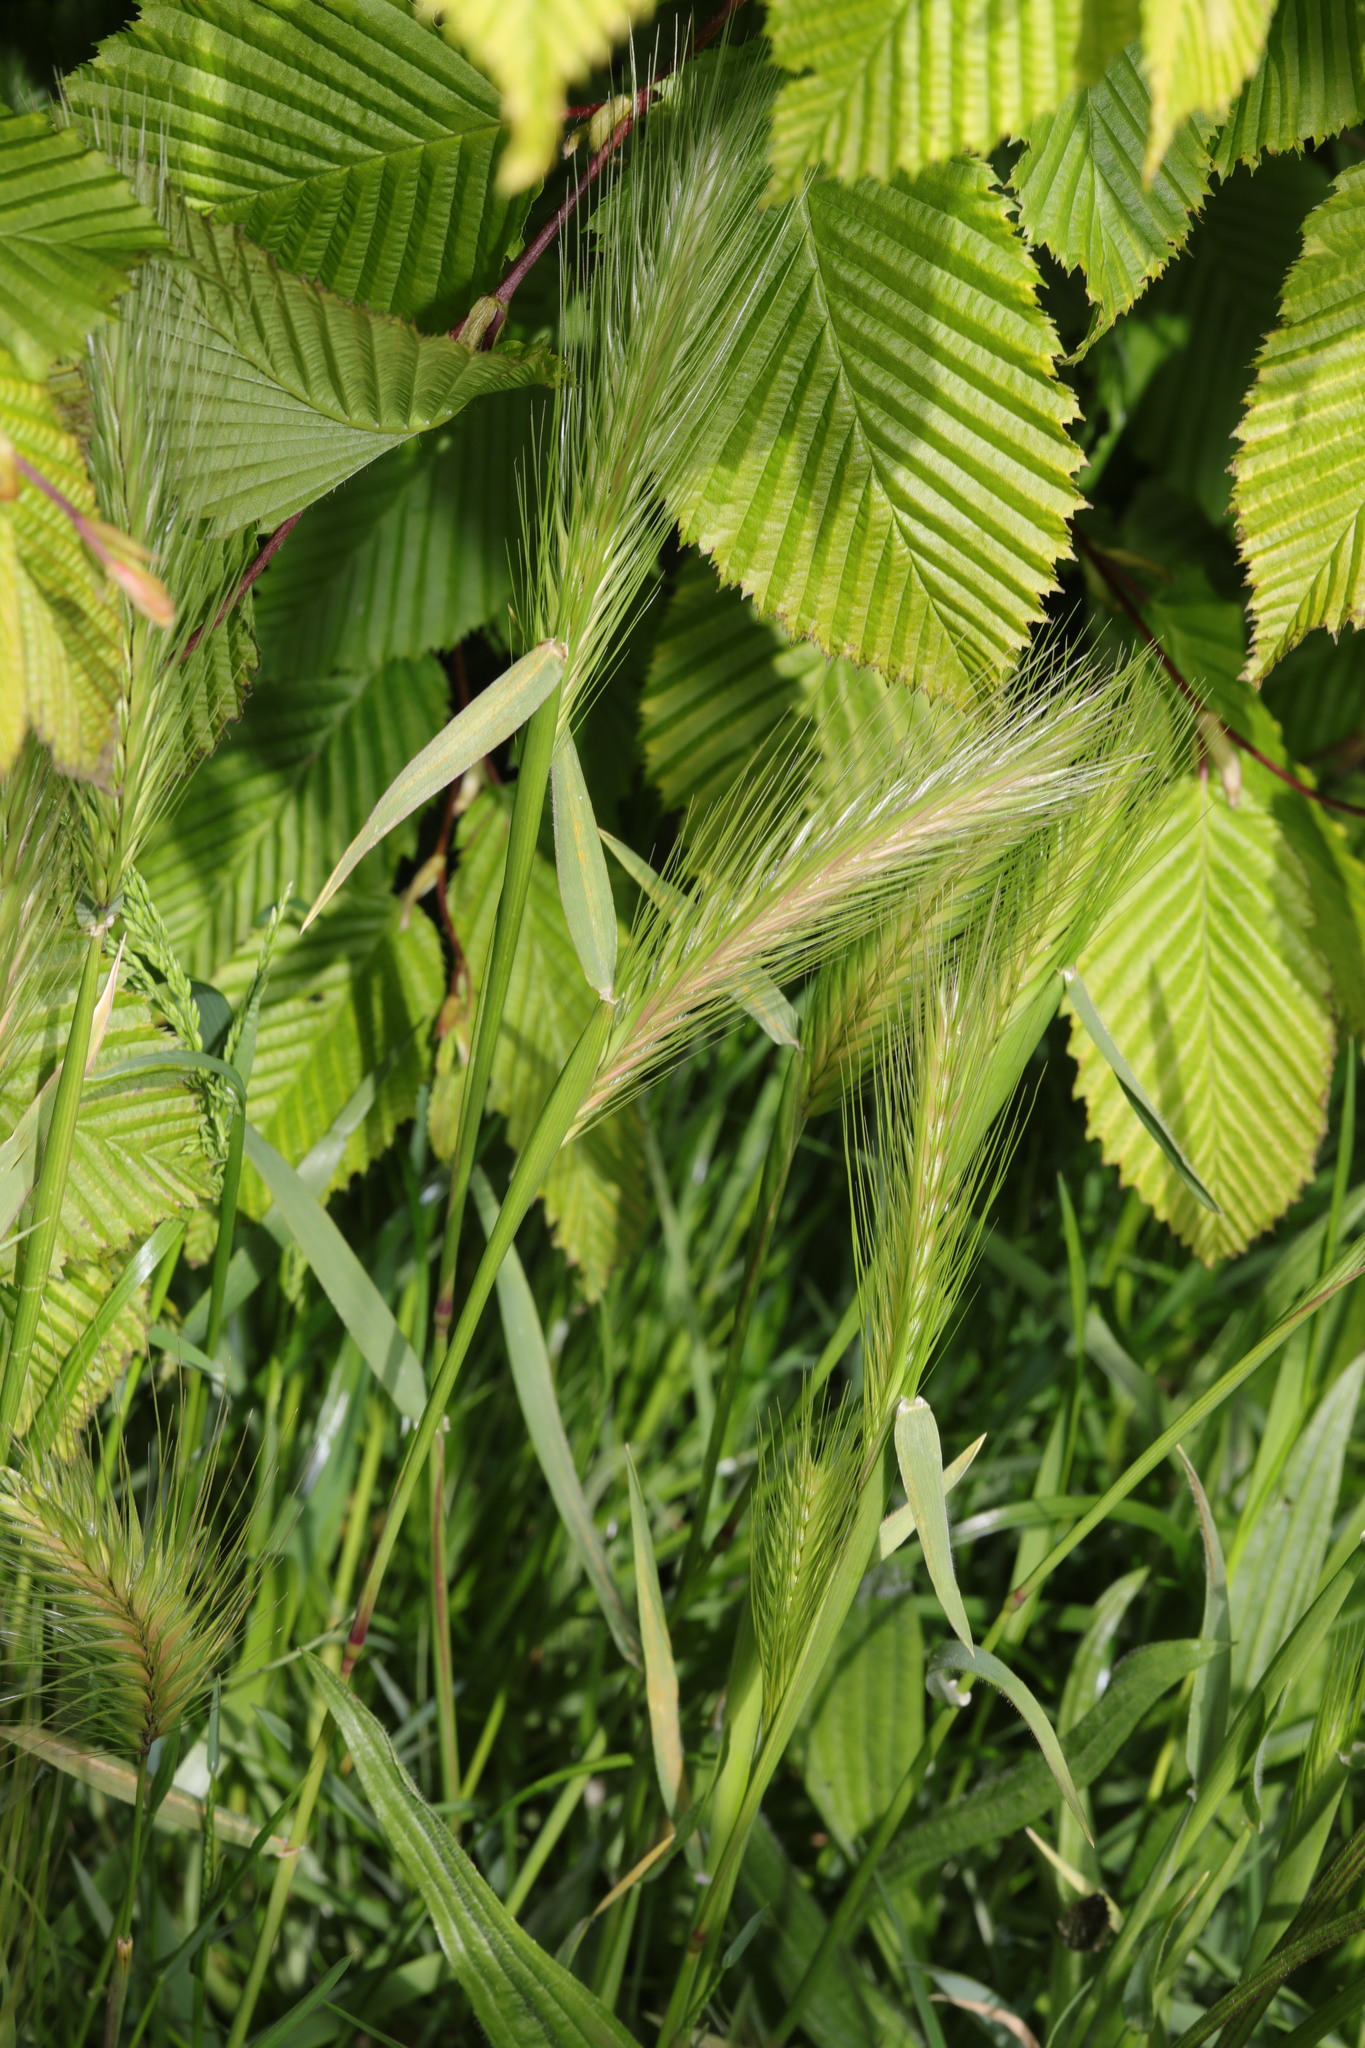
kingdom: Plantae
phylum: Tracheophyta
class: Liliopsida
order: Poales
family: Poaceae
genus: Hordeum
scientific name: Hordeum murinum
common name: Wall barley
